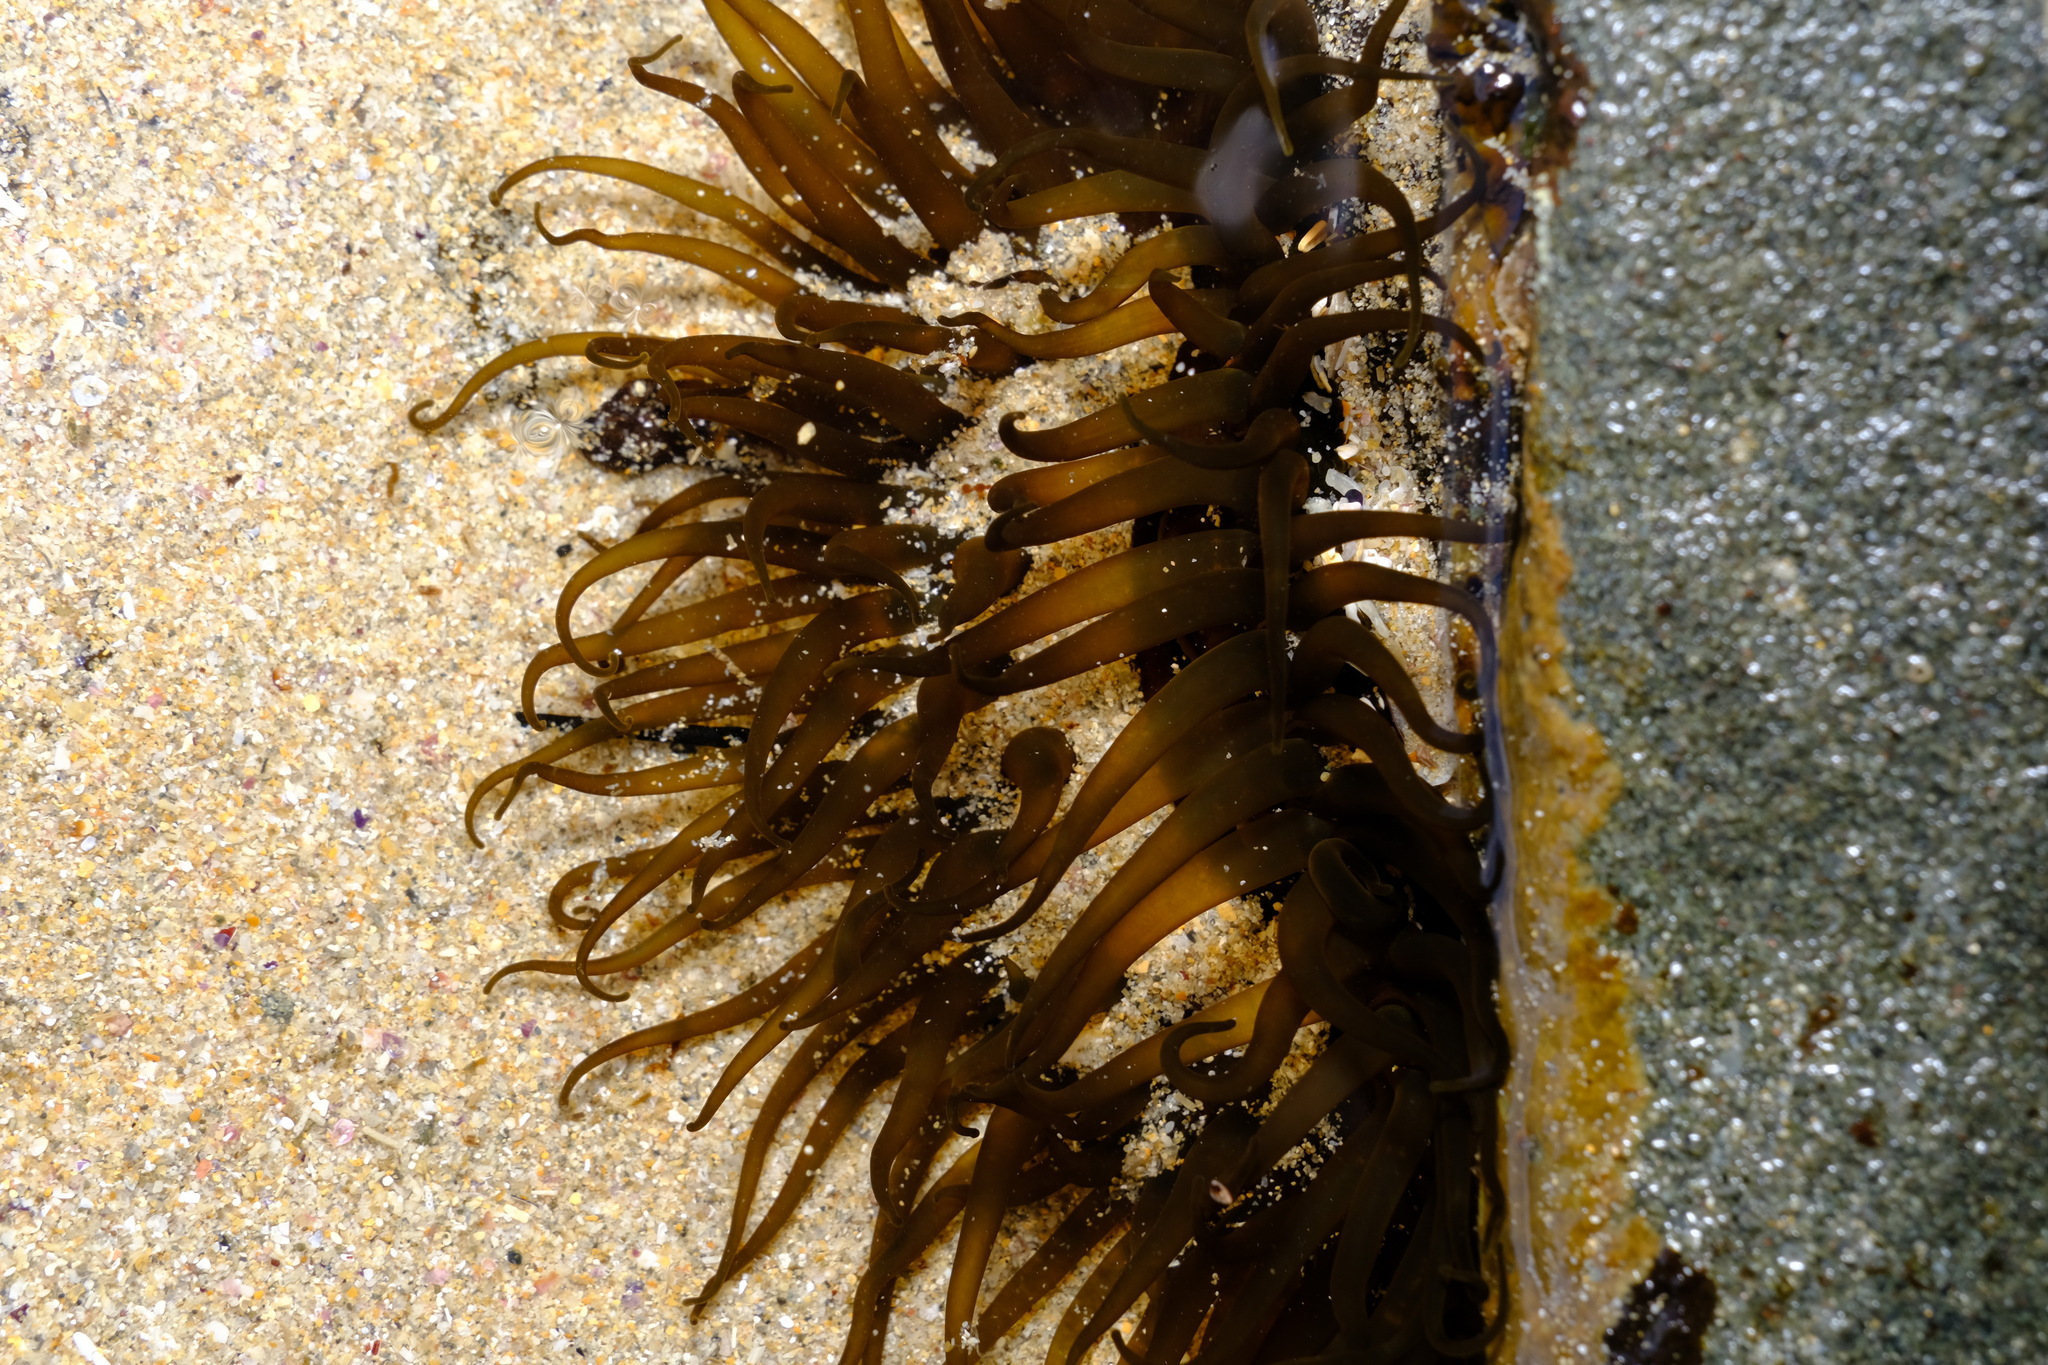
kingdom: Animalia
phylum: Cnidaria
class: Anthozoa
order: Actiniaria
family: Actiniidae
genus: Aulactinia
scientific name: Aulactinia veratra
